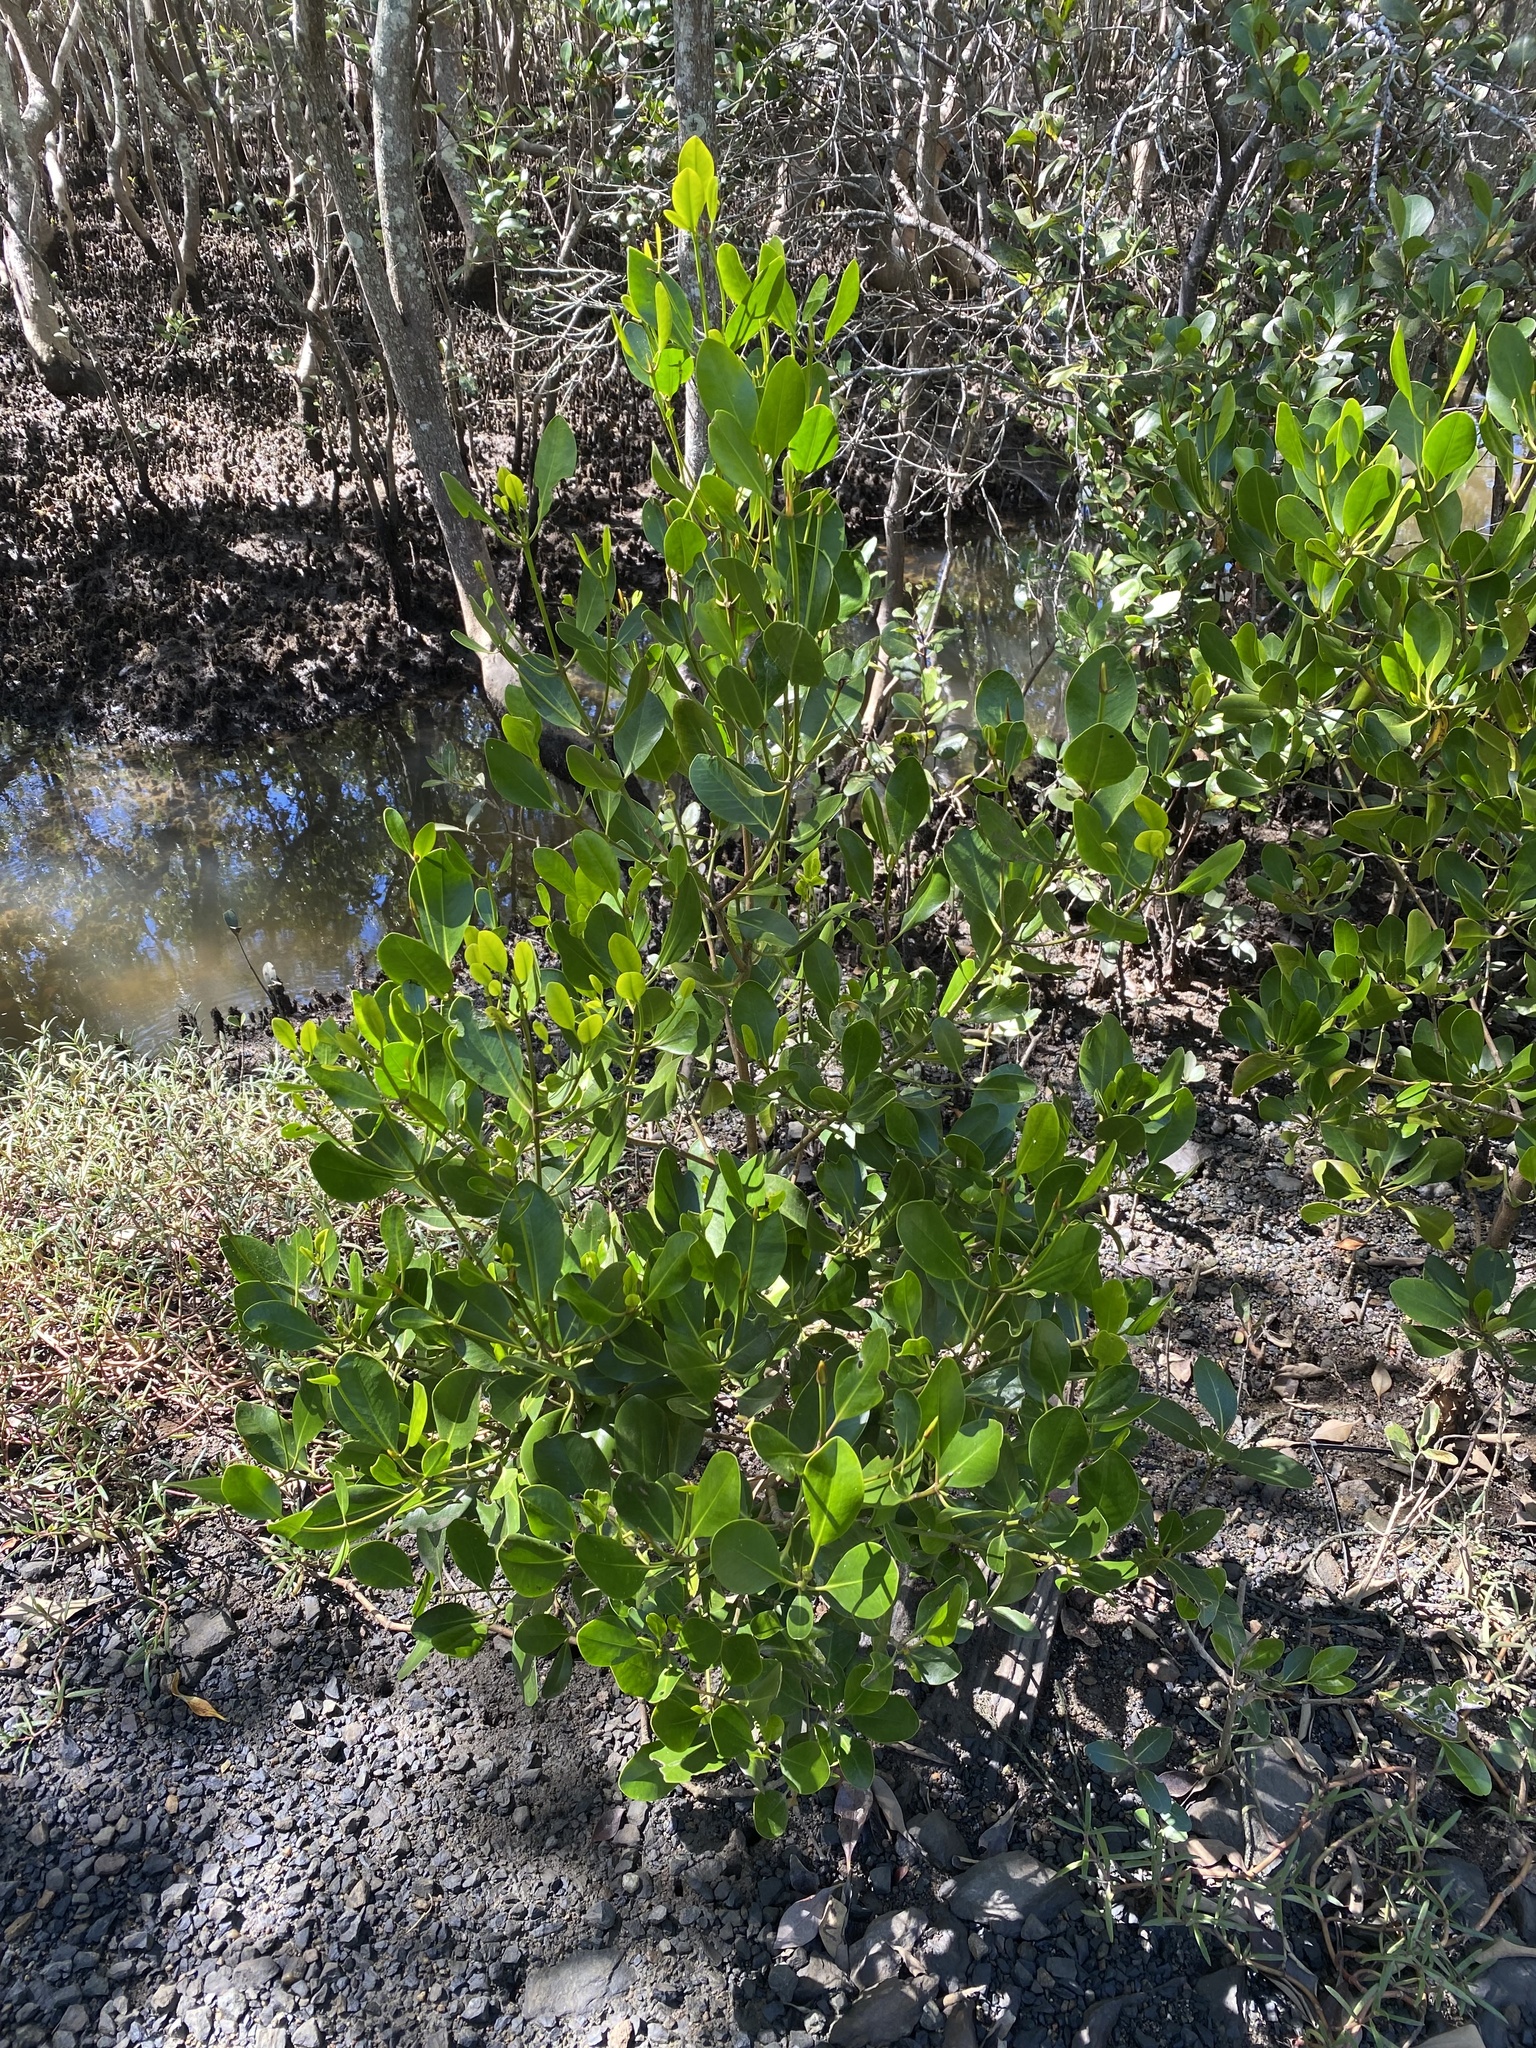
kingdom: Plantae
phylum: Tracheophyta
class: Magnoliopsida
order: Malpighiales
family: Rhizophoraceae
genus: Ceriops
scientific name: Ceriops australis
